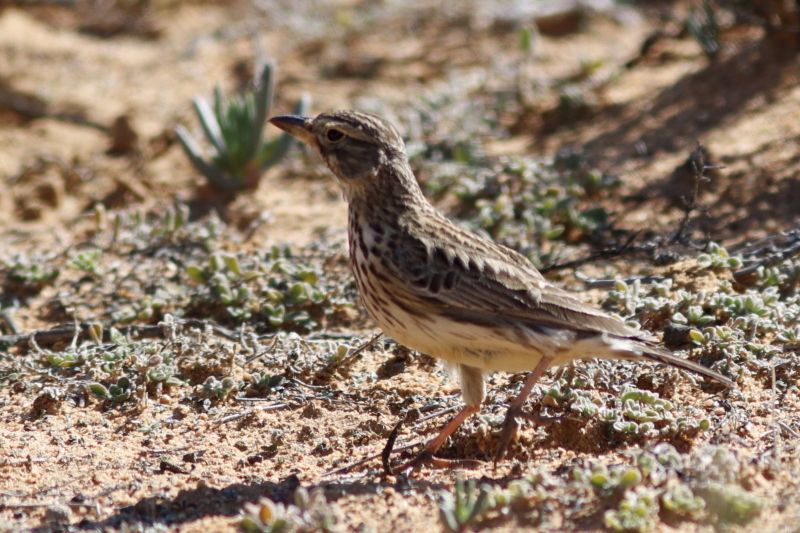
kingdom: Animalia
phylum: Chordata
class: Aves
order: Passeriformes
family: Alaudidae
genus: Galerida
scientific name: Galerida magnirostris
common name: Large-billed lark
